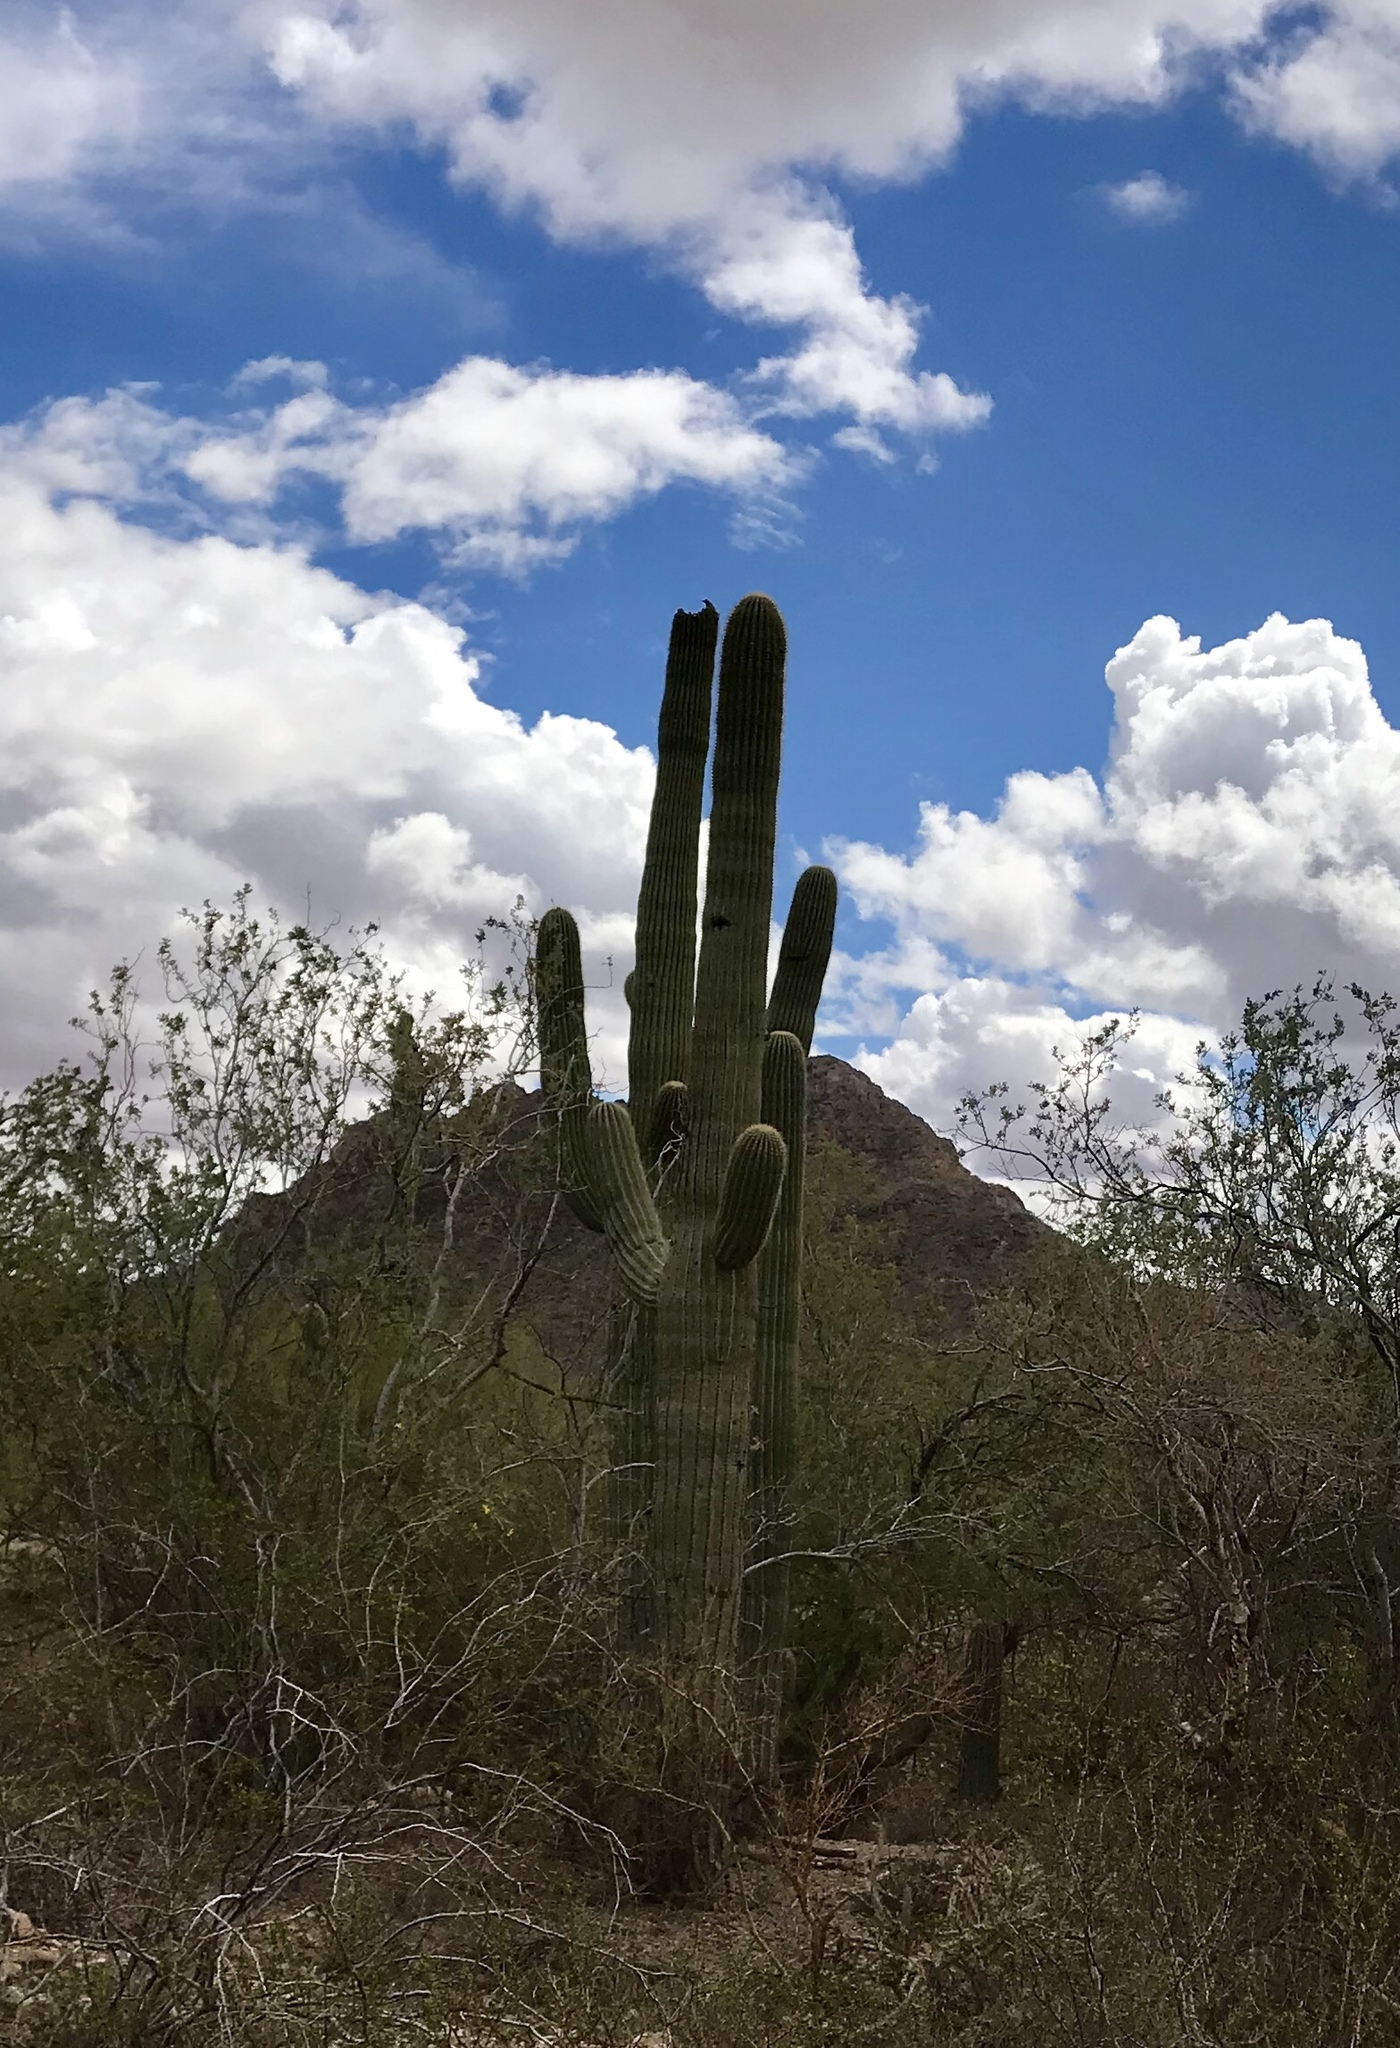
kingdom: Plantae
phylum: Tracheophyta
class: Magnoliopsida
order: Caryophyllales
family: Cactaceae
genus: Carnegiea
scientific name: Carnegiea gigantea
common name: Saguaro
